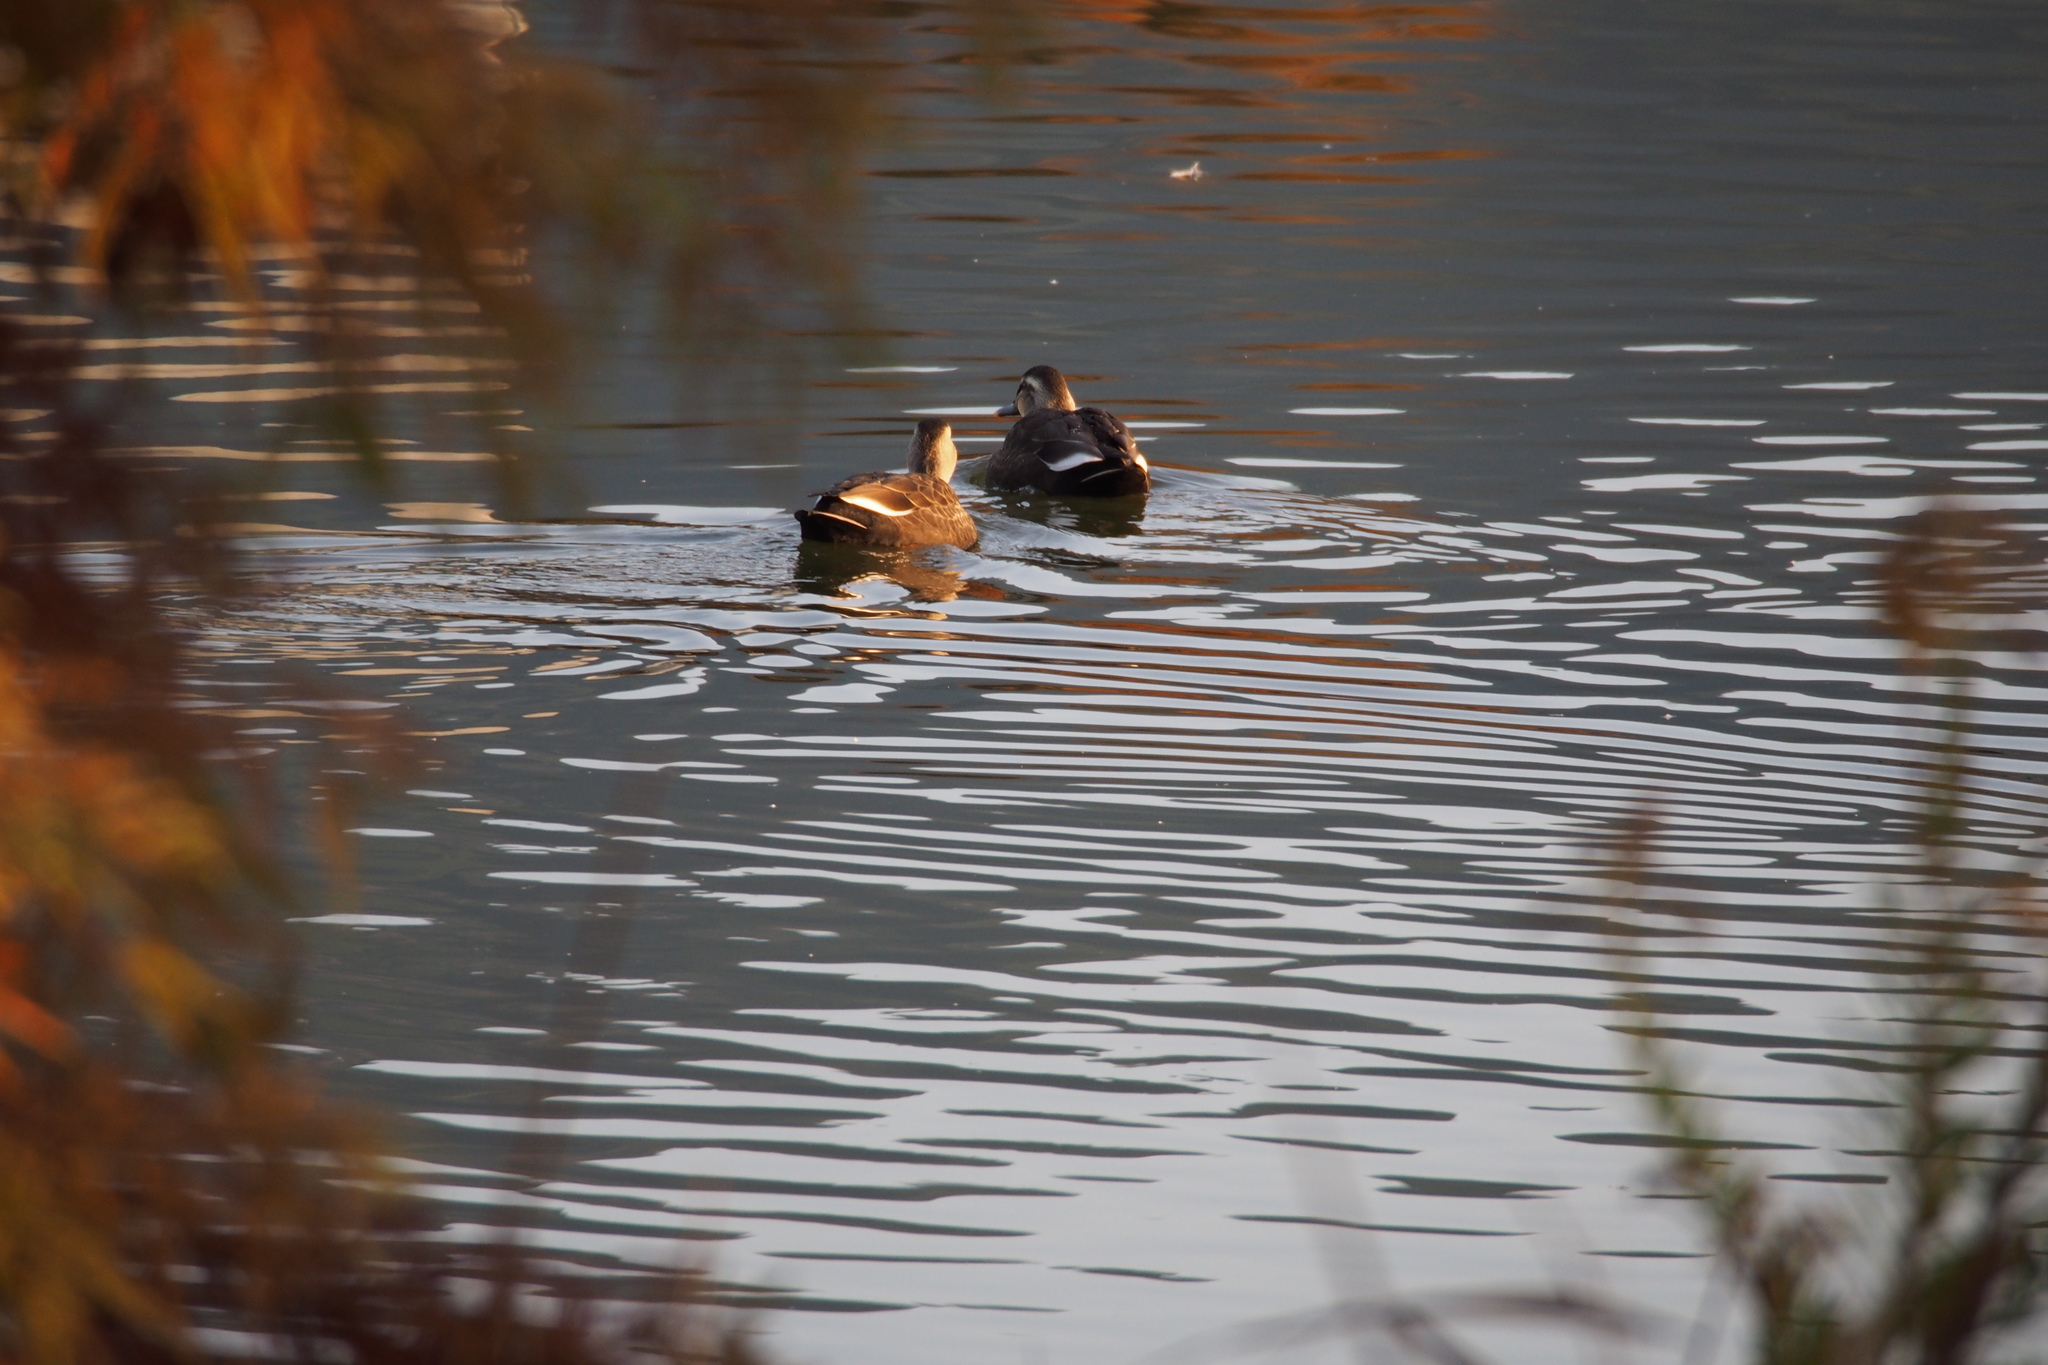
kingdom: Animalia
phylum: Chordata
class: Aves
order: Anseriformes
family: Anatidae
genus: Anas
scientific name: Anas zonorhyncha
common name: Eastern spot-billed duck
